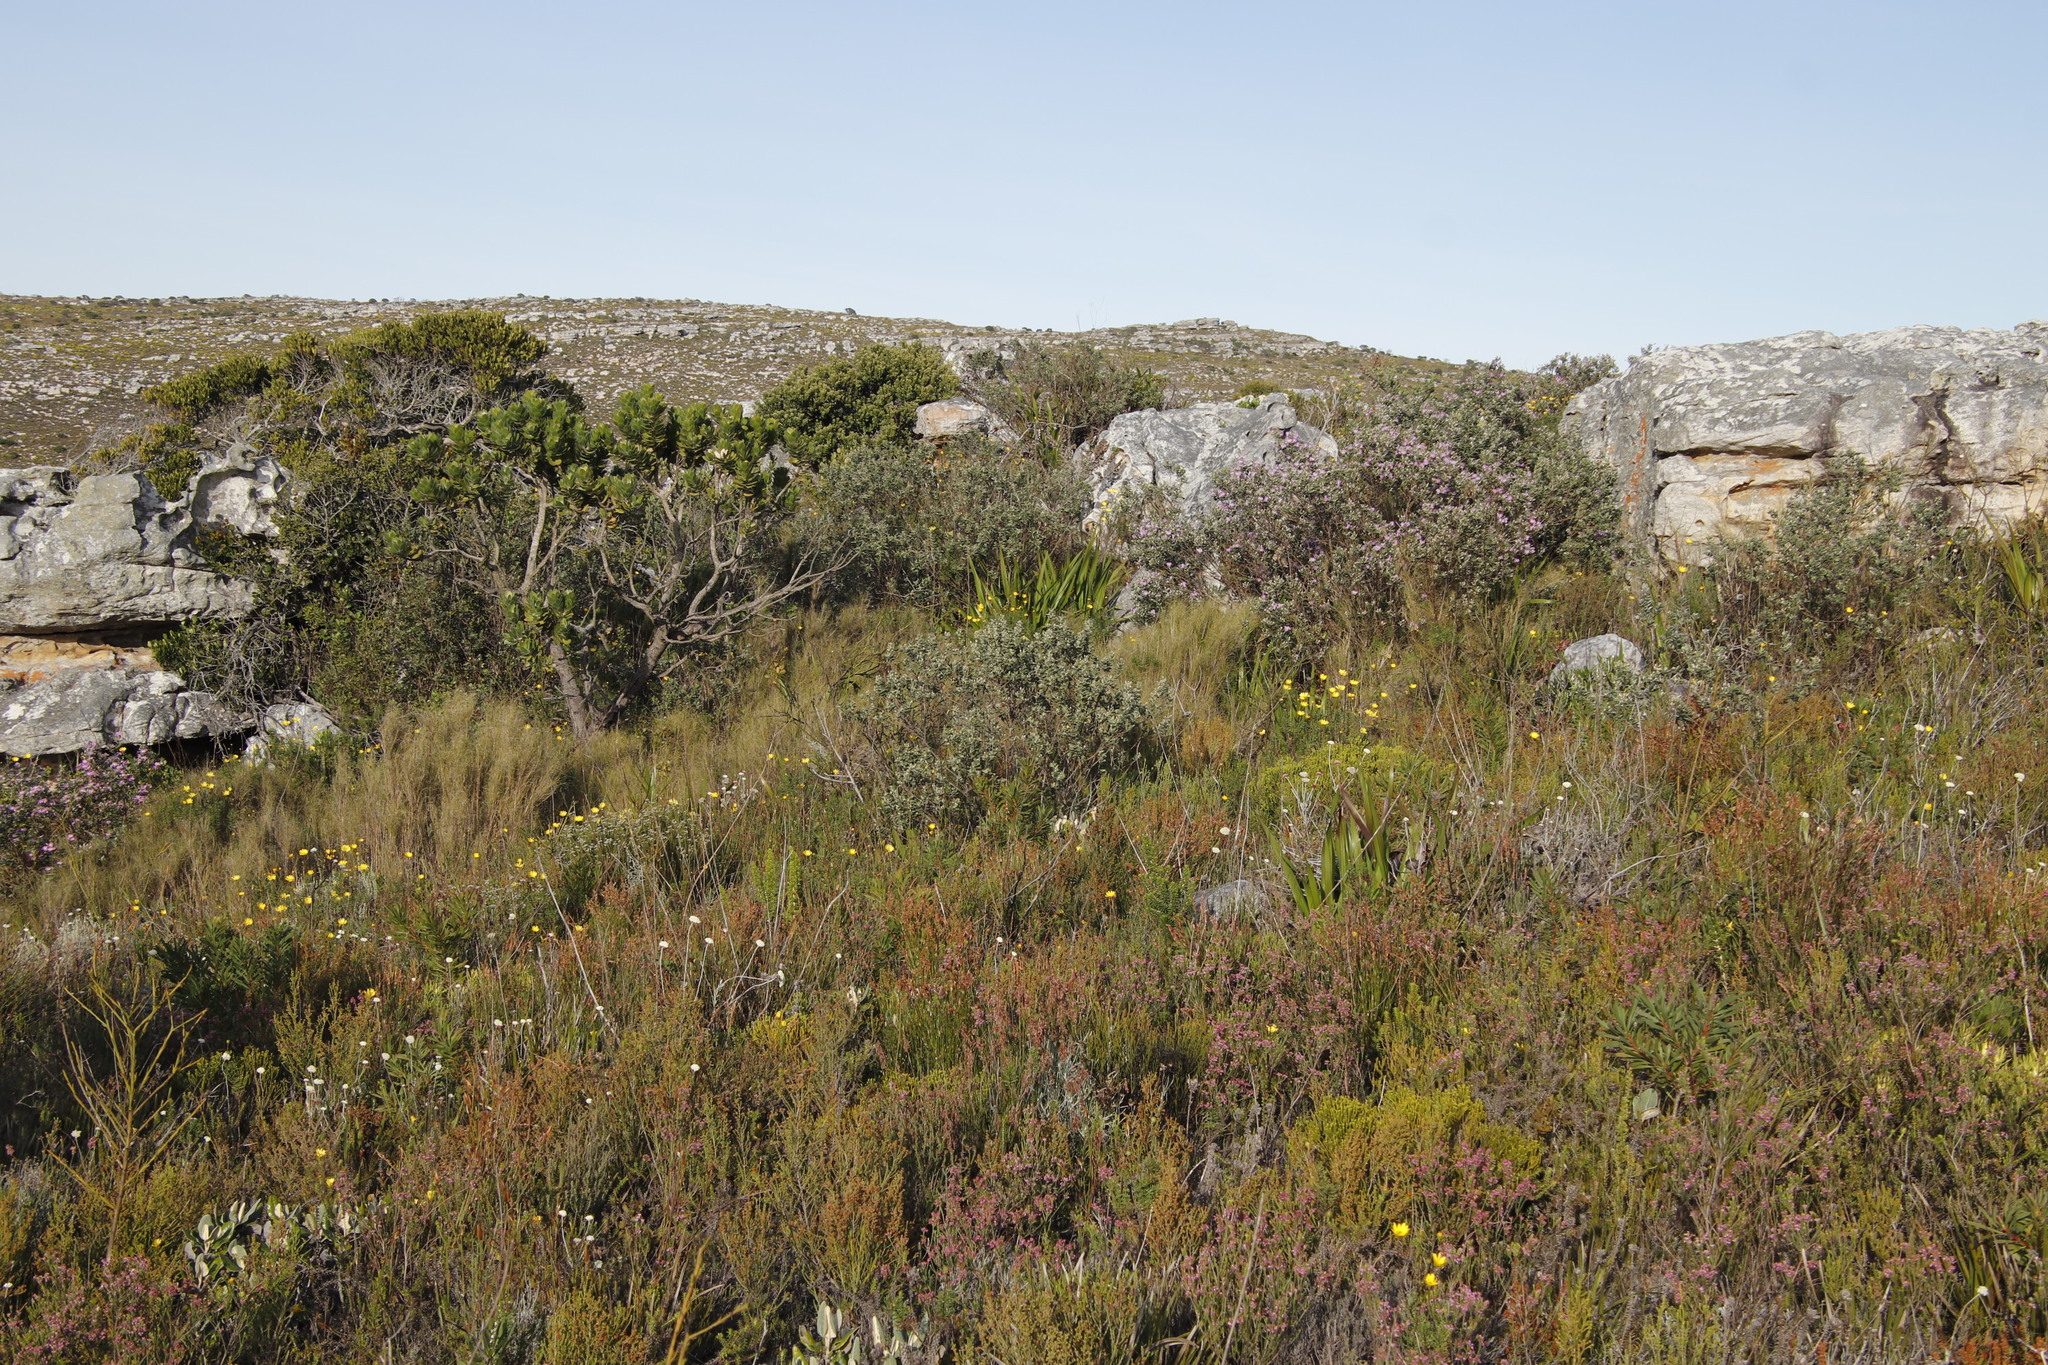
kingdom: Plantae
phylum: Tracheophyta
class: Magnoliopsida
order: Fabales
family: Fabaceae
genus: Podalyria
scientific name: Podalyria calyptrata
